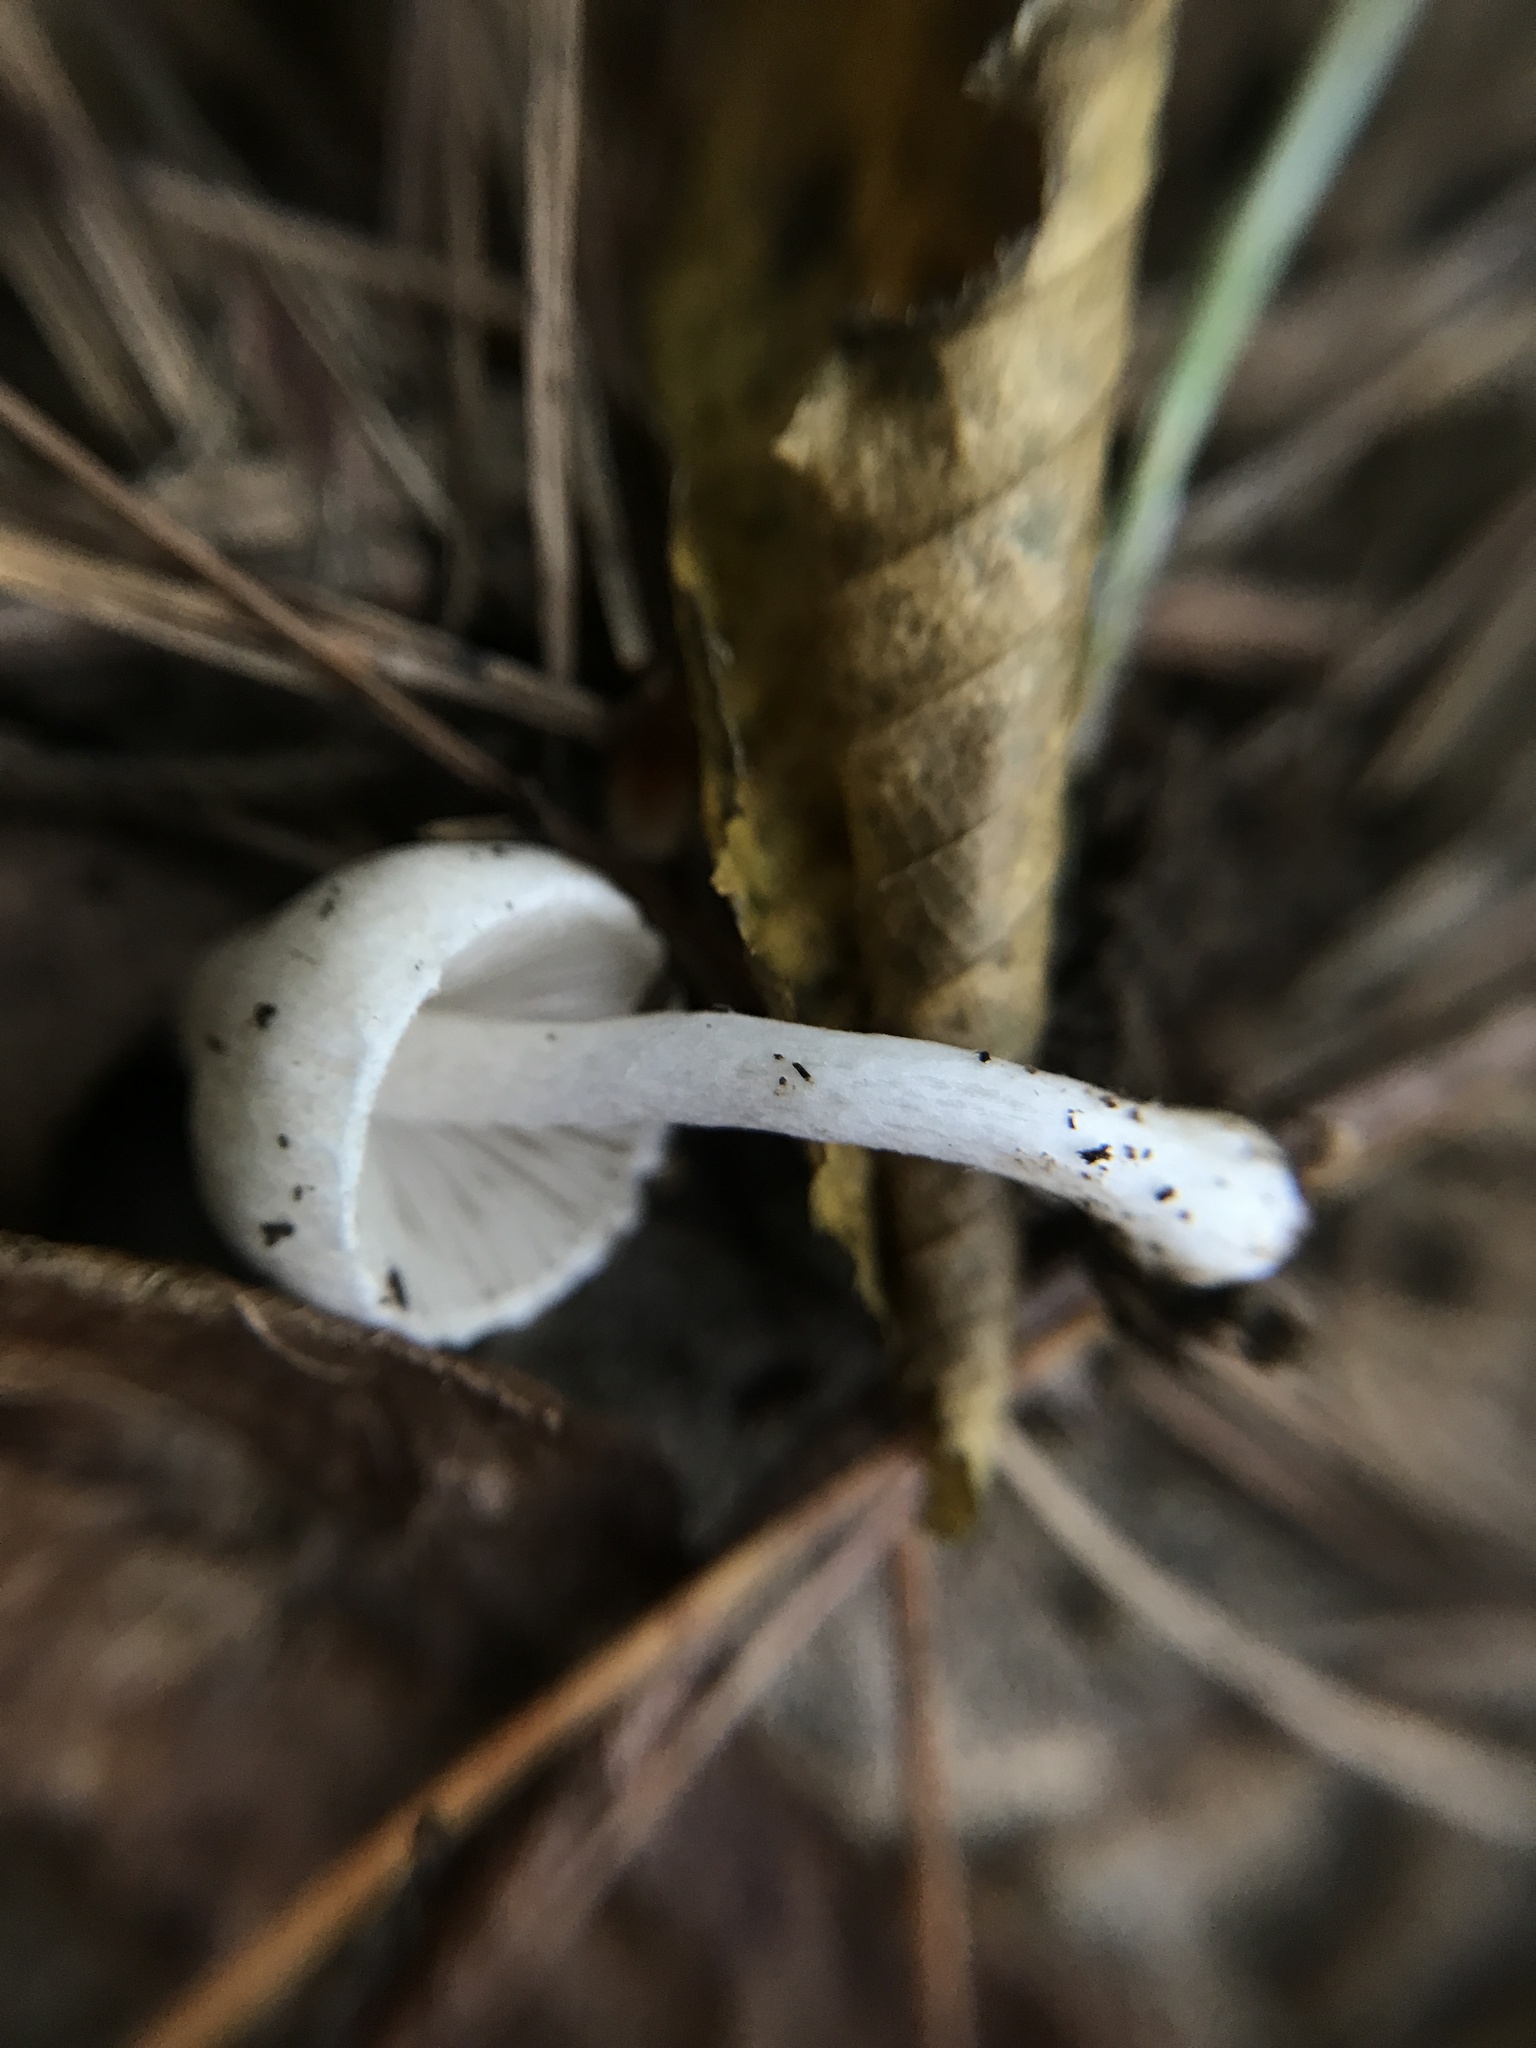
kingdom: Fungi
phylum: Basidiomycota
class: Agaricomycetes
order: Agaricales
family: Inocybaceae
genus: Inocybe
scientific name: Inocybe sambucella
